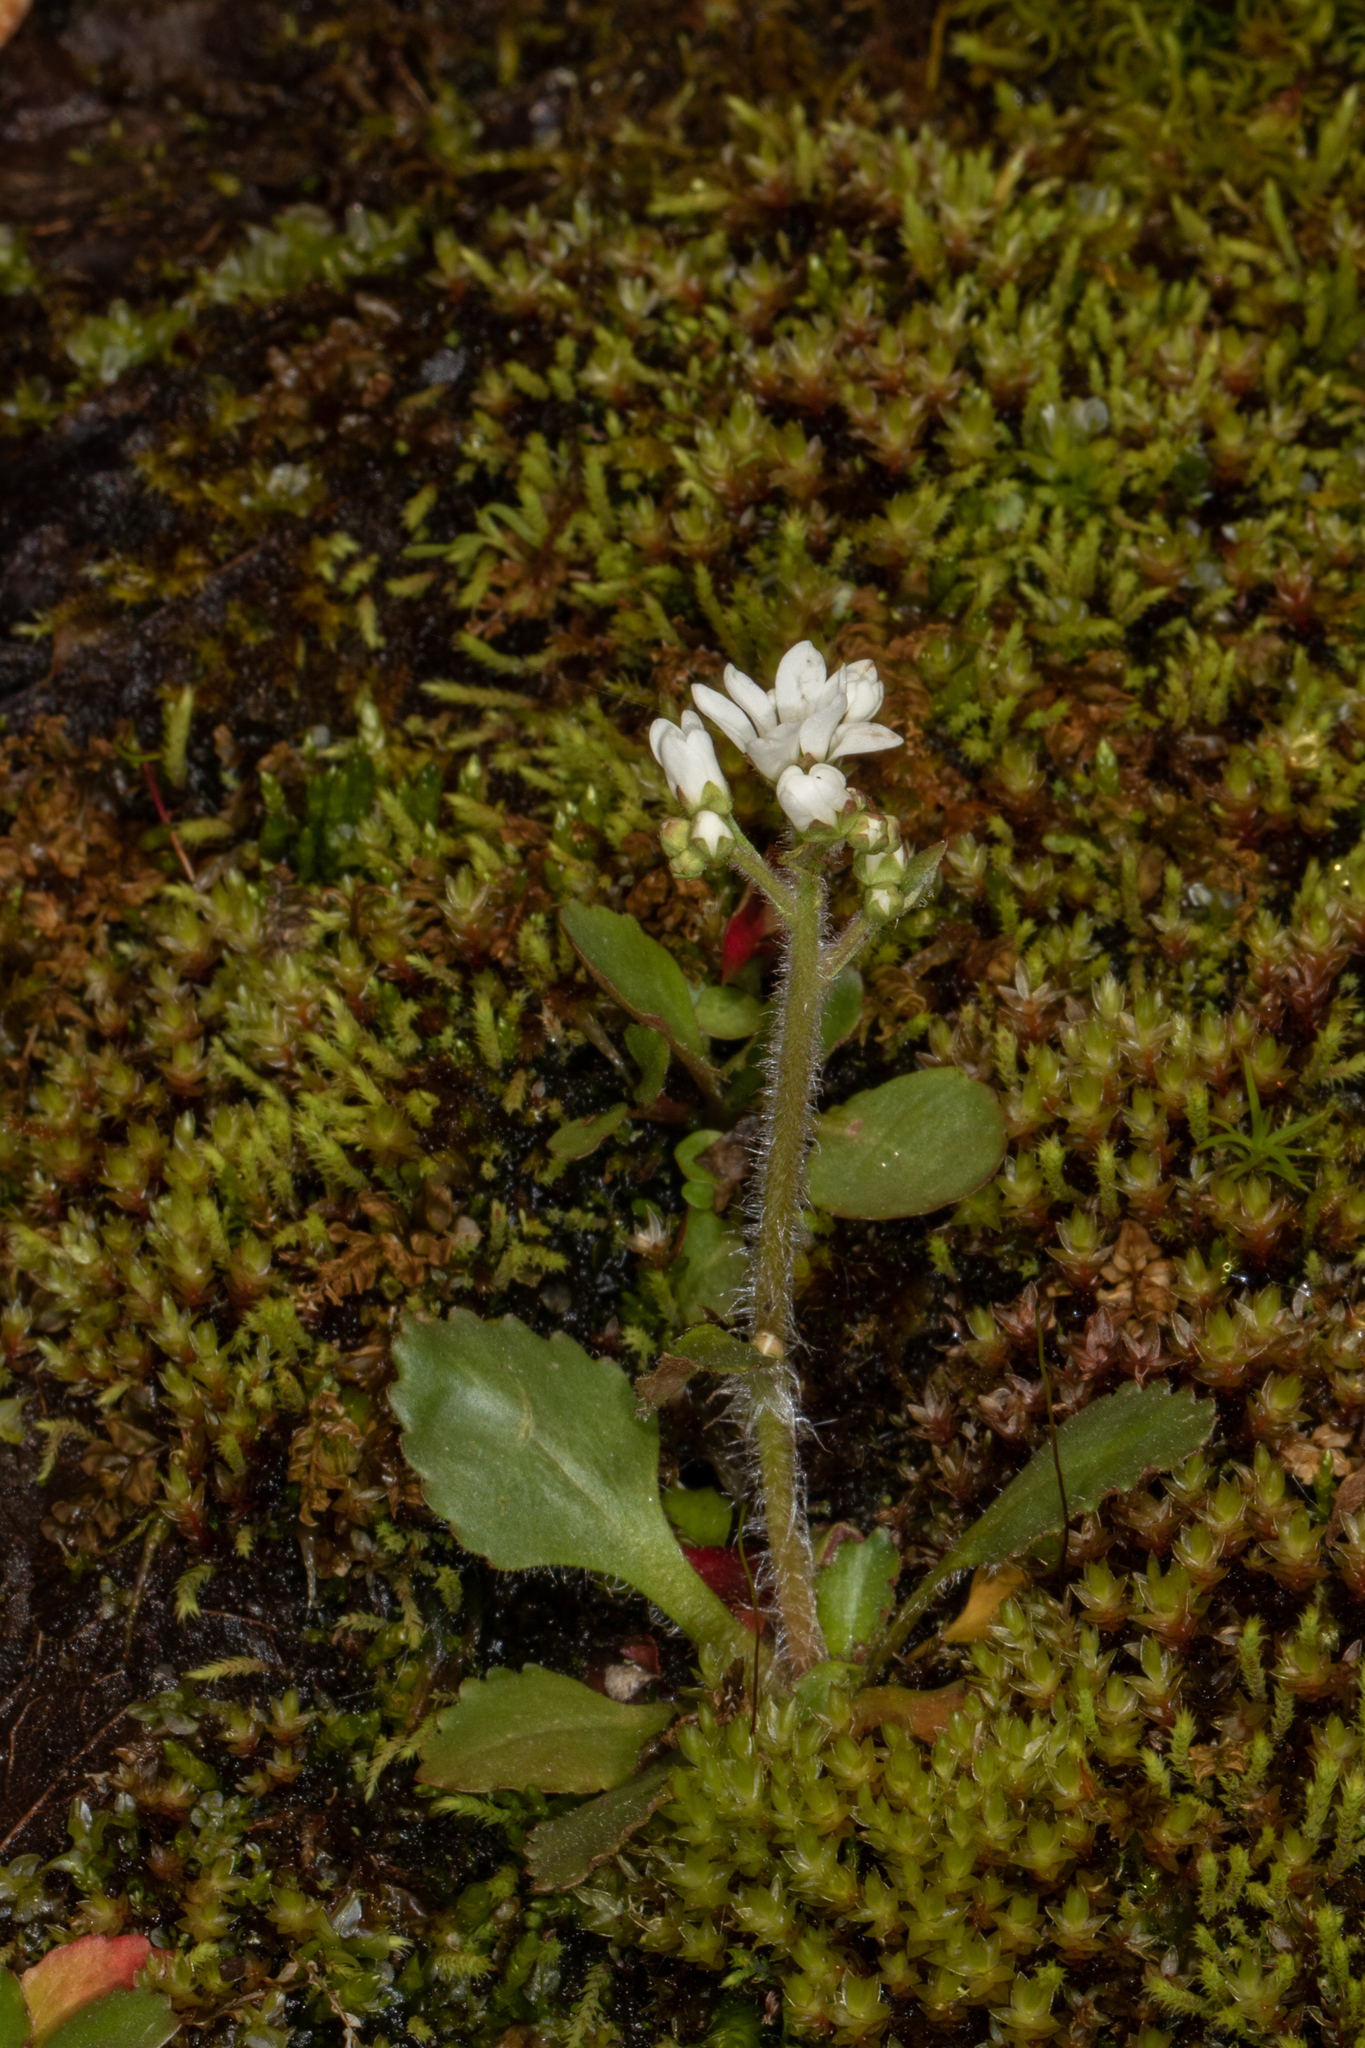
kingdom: Plantae
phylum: Tracheophyta
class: Magnoliopsida
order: Saxifragales
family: Saxifragaceae
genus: Micranthes
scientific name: Micranthes virginiensis
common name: Early saxifrage
